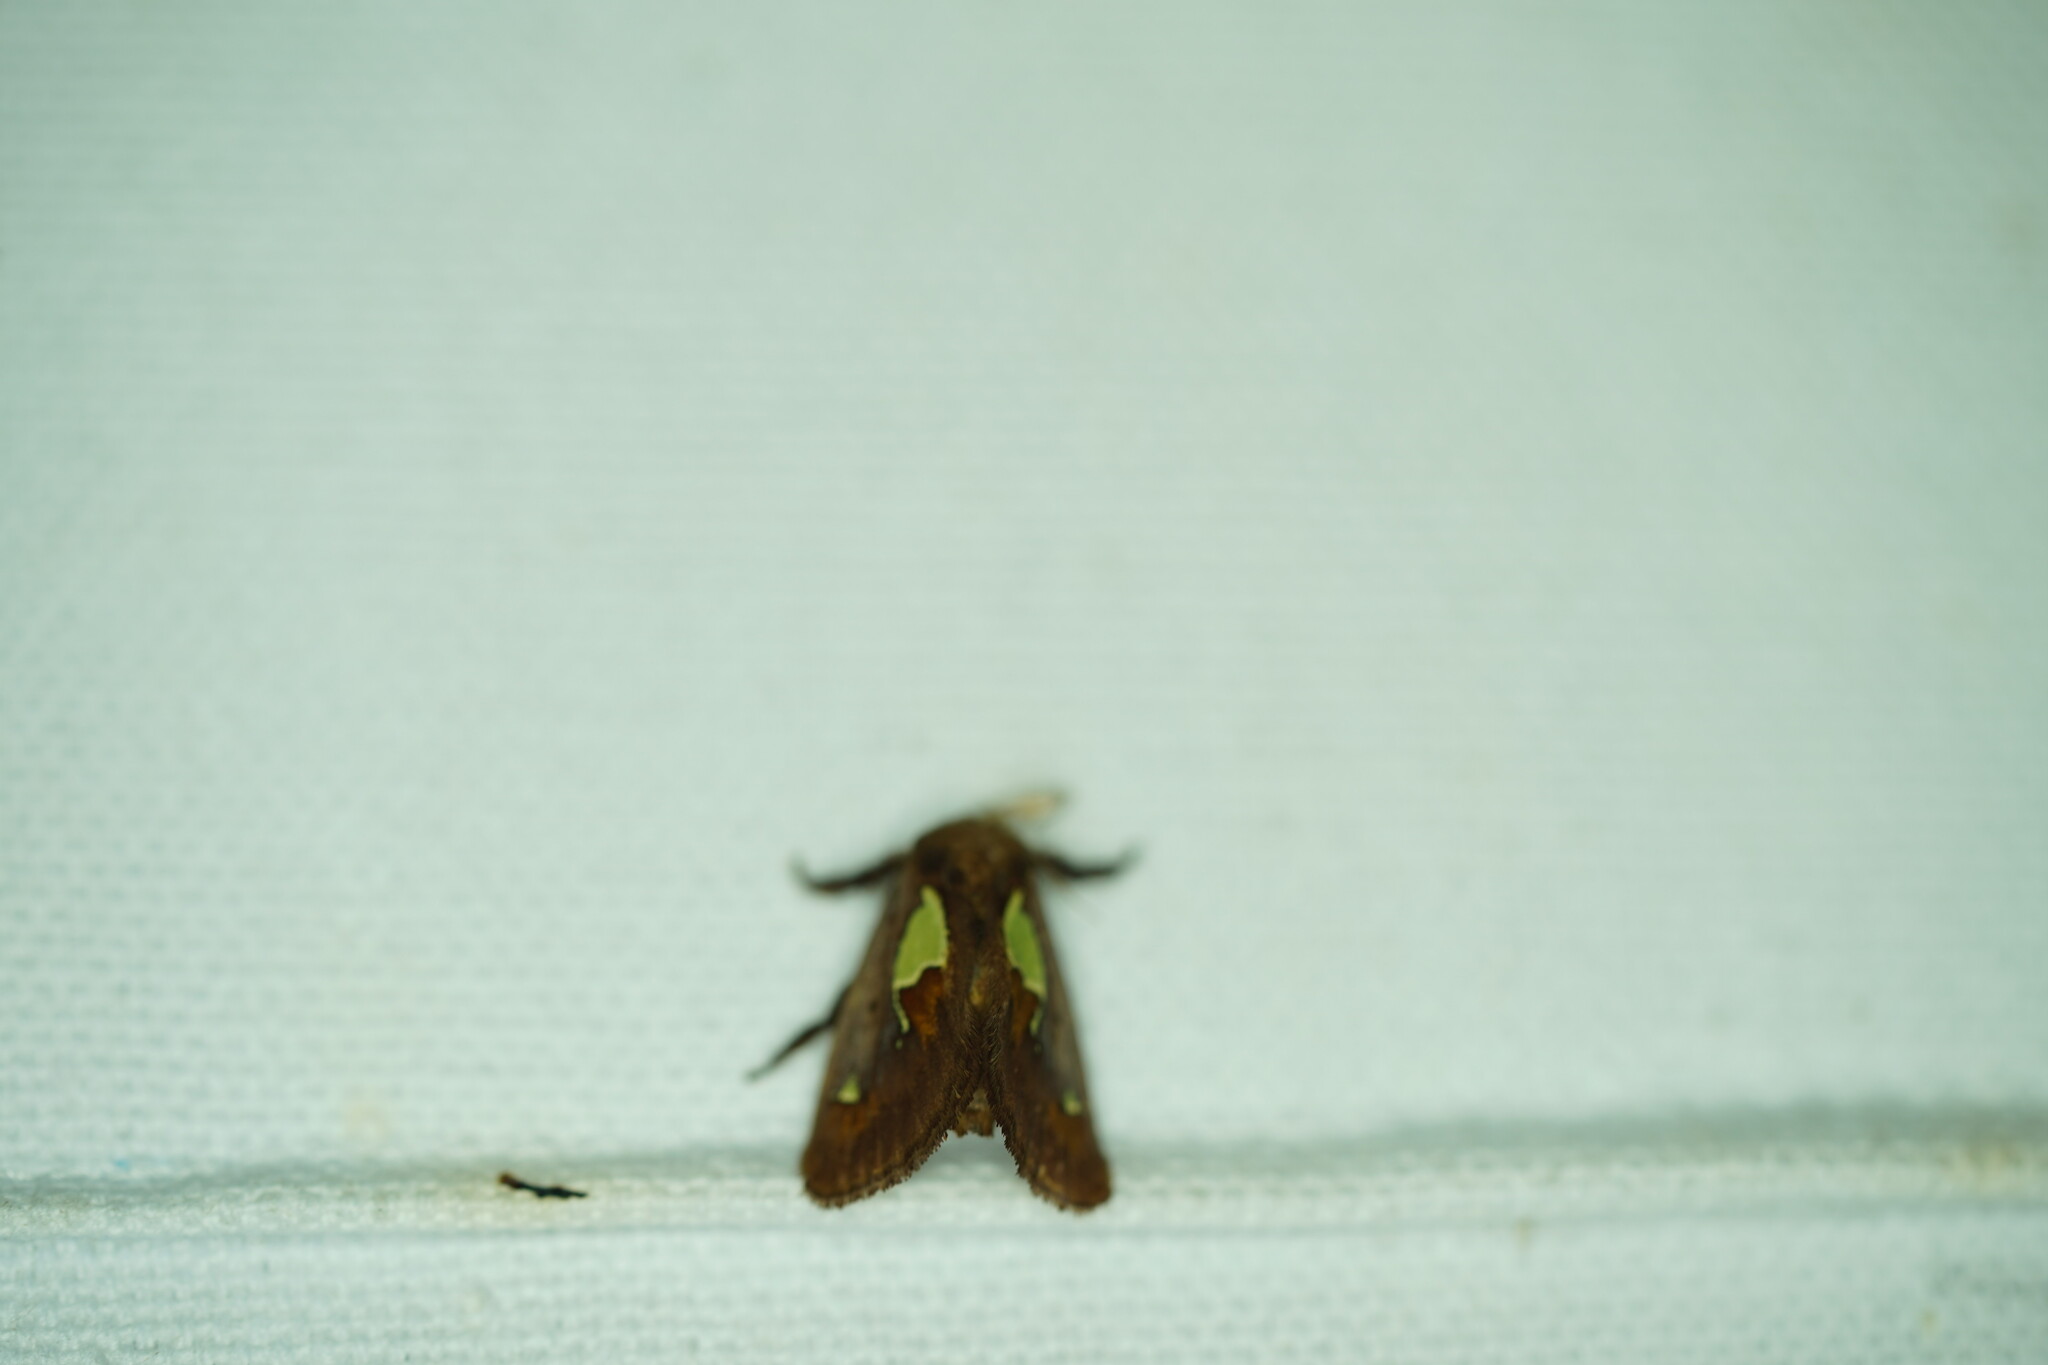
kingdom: Animalia
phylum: Arthropoda
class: Insecta
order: Lepidoptera
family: Limacodidae
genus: Euclea
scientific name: Euclea delphinii
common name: Spiny oak-slug moth
